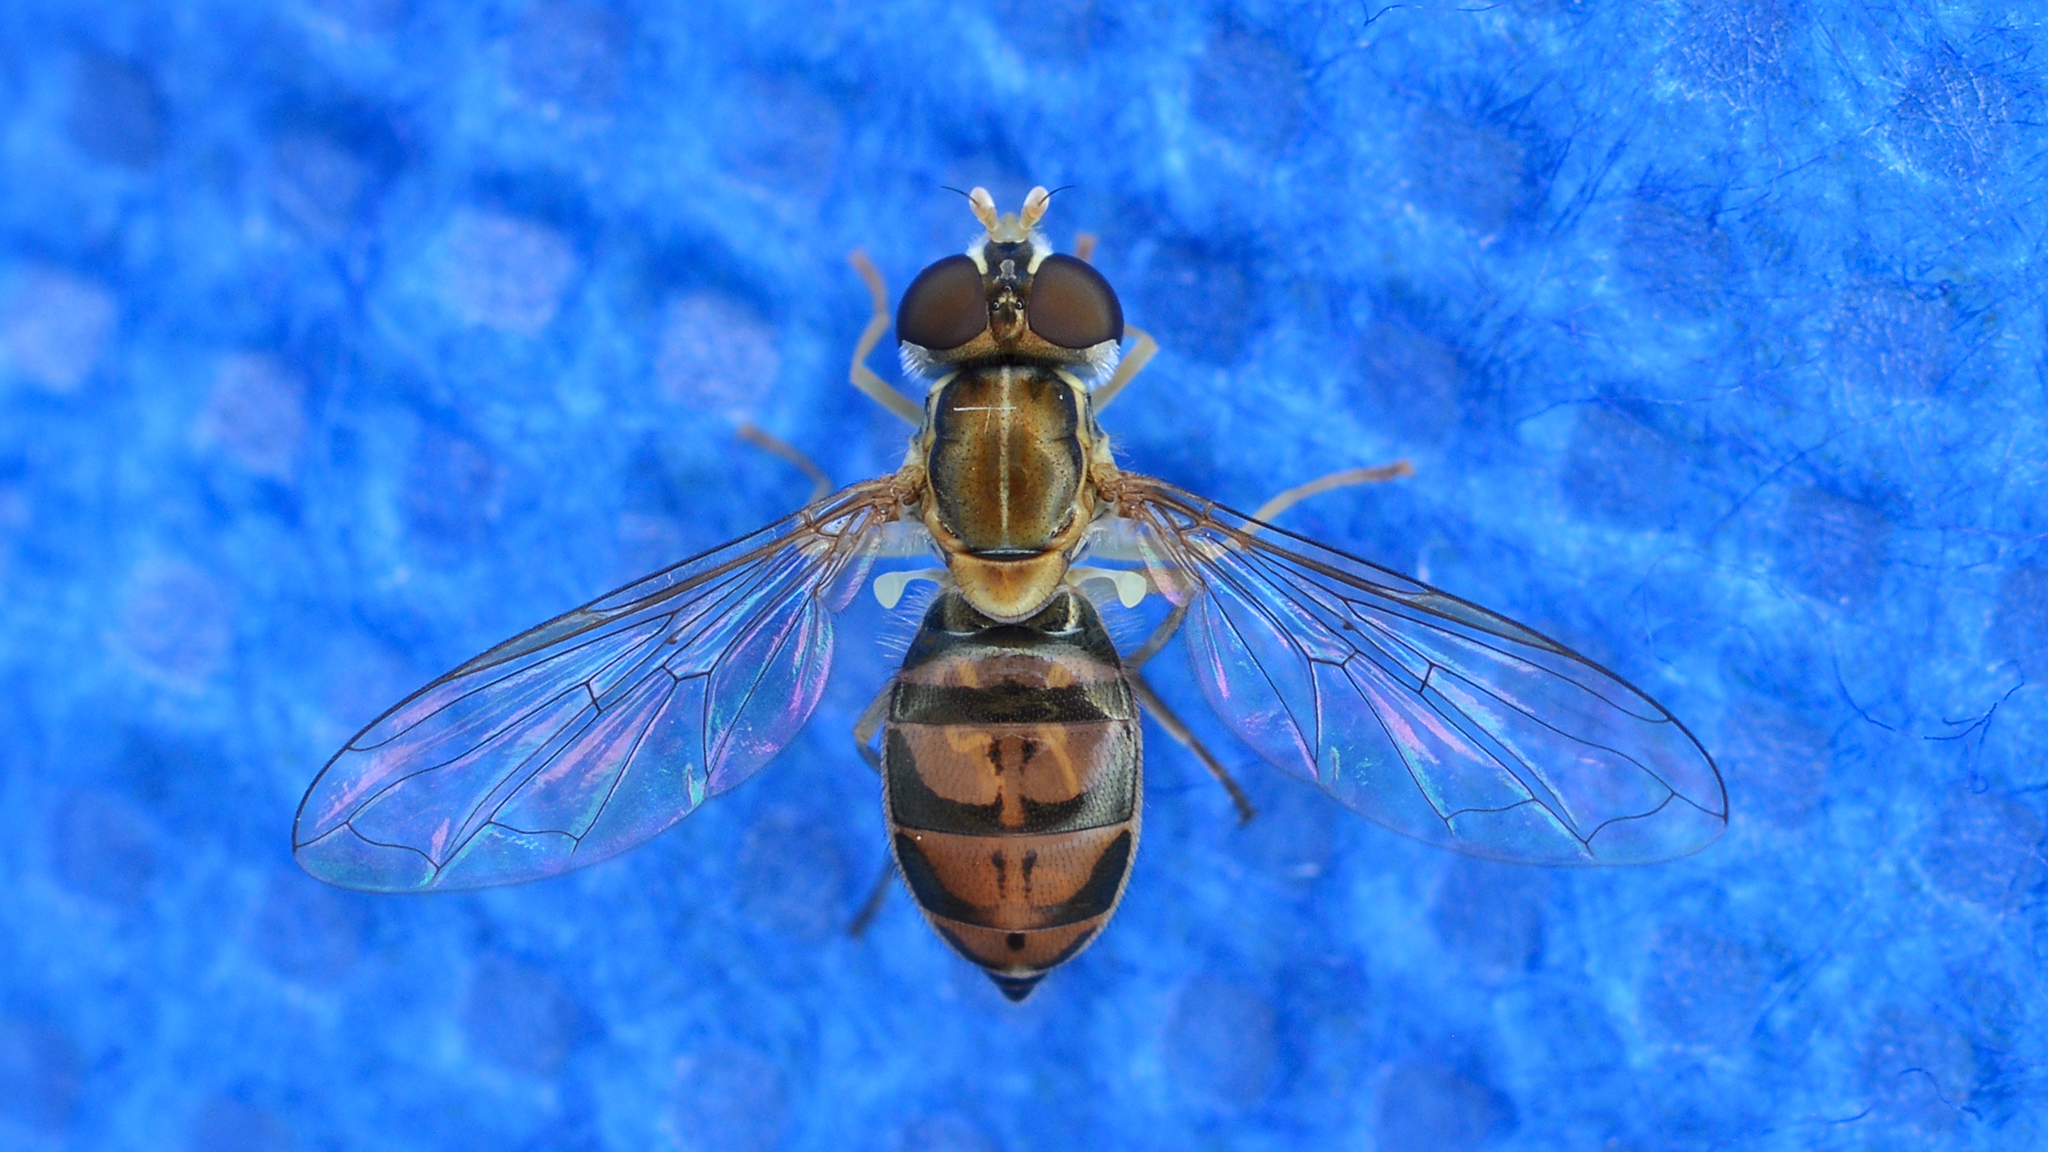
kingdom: Animalia
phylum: Arthropoda
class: Insecta
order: Diptera
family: Syrphidae
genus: Toxomerus
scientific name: Toxomerus marginatus
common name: Syrphid fly
